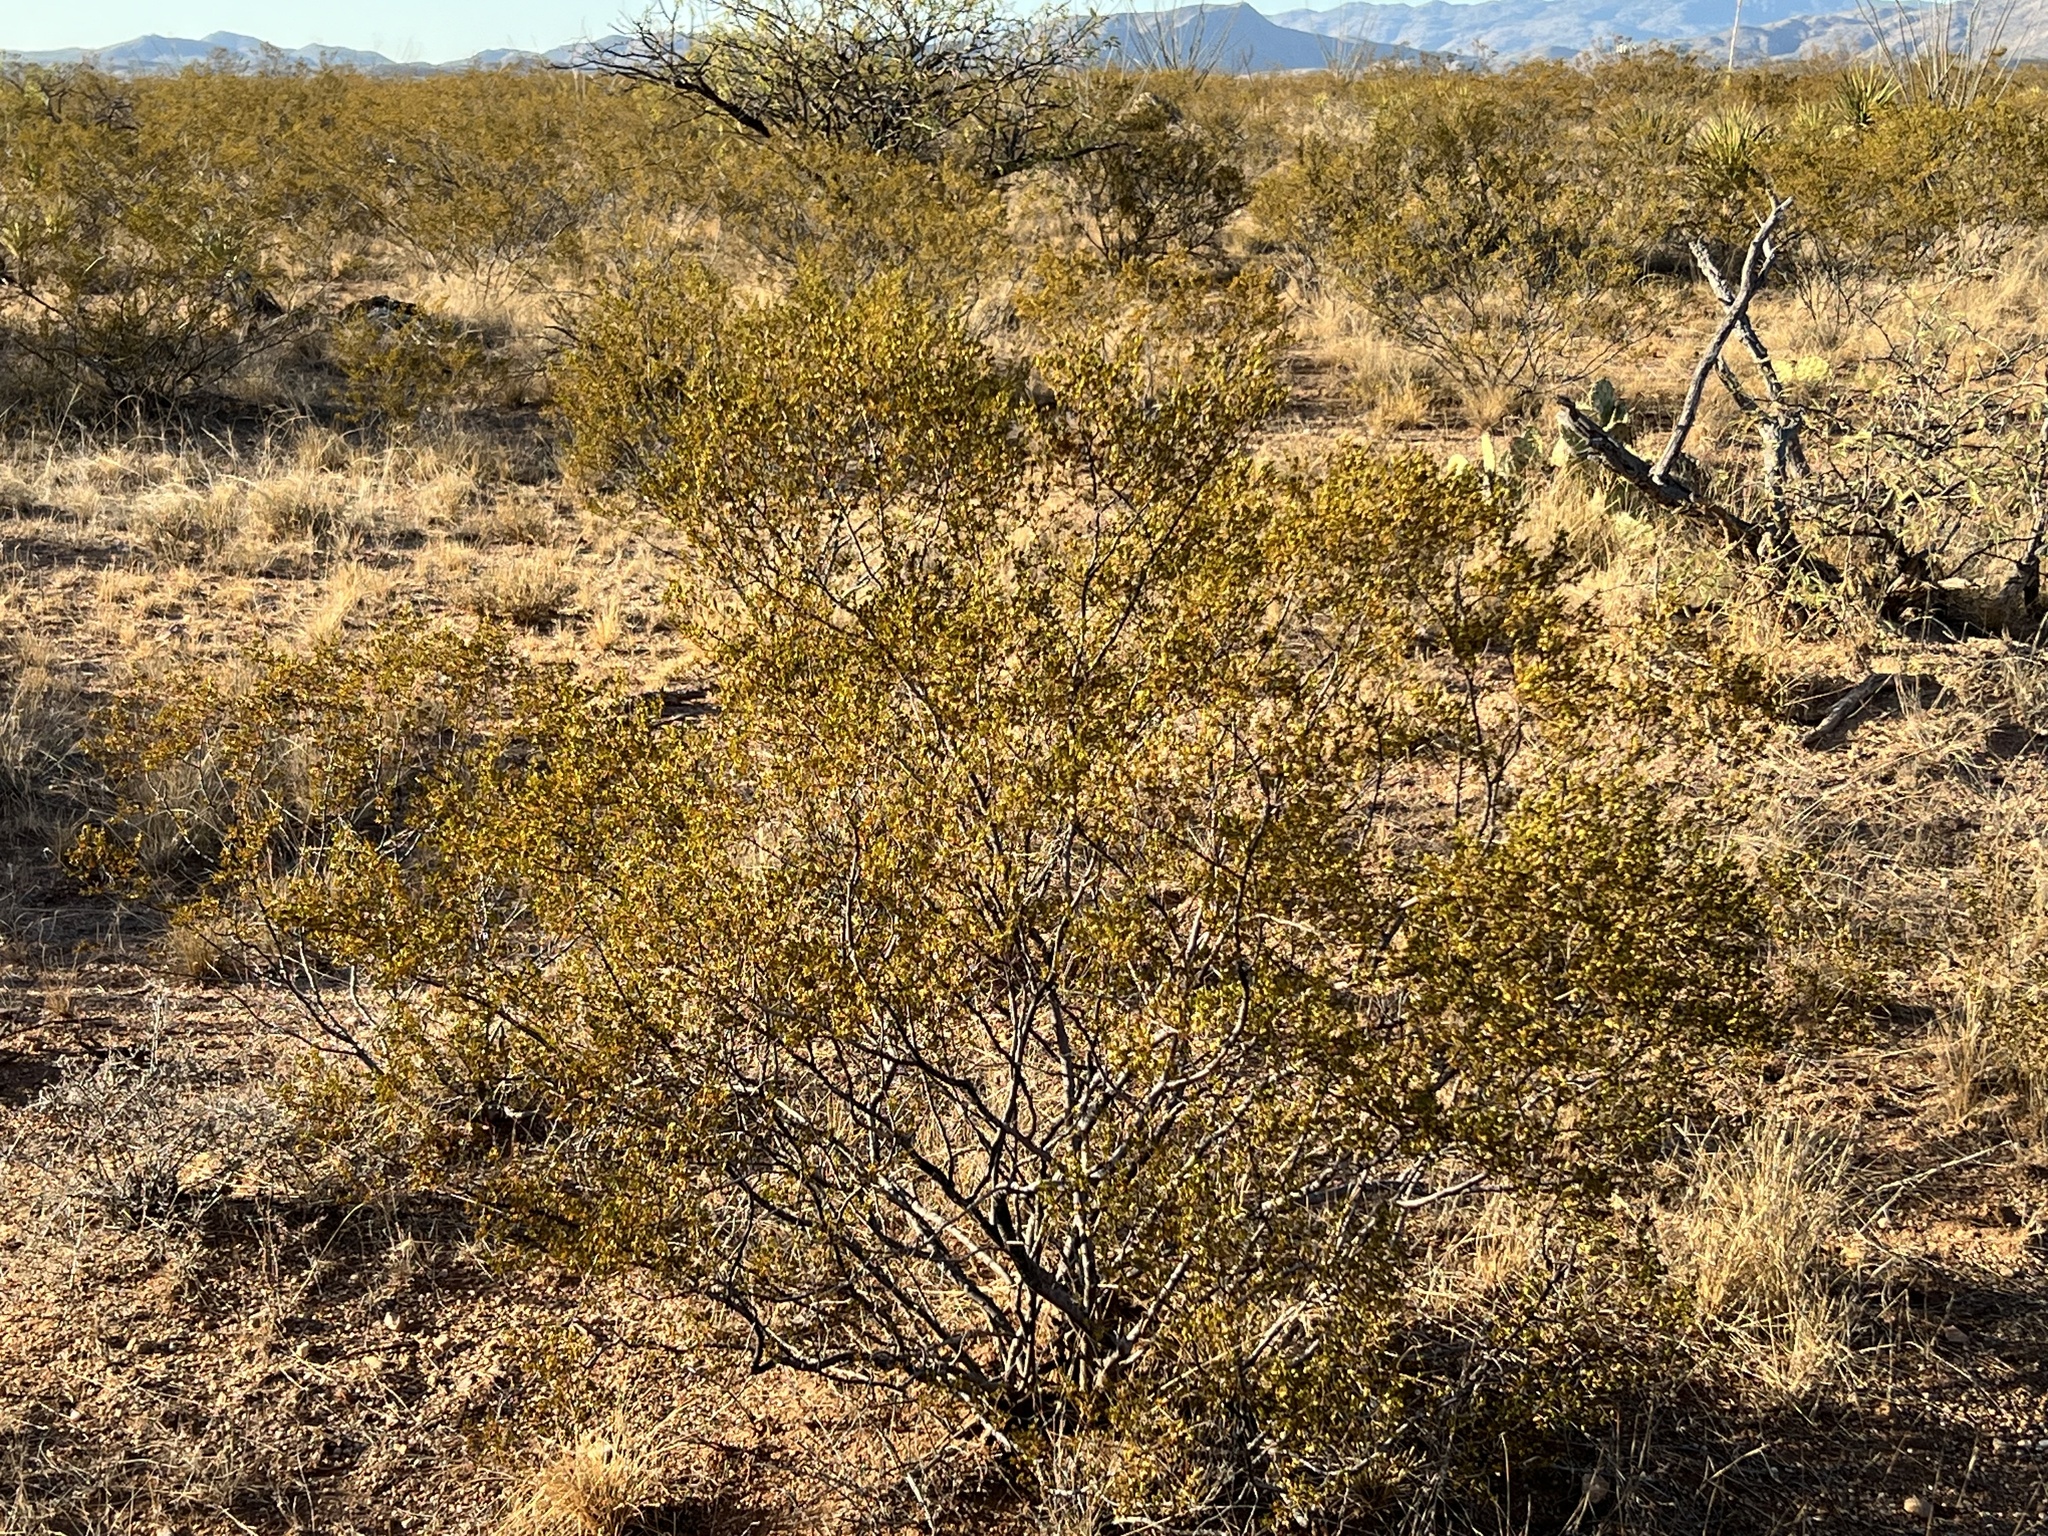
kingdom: Plantae
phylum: Tracheophyta
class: Magnoliopsida
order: Zygophyllales
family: Zygophyllaceae
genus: Larrea
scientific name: Larrea tridentata
